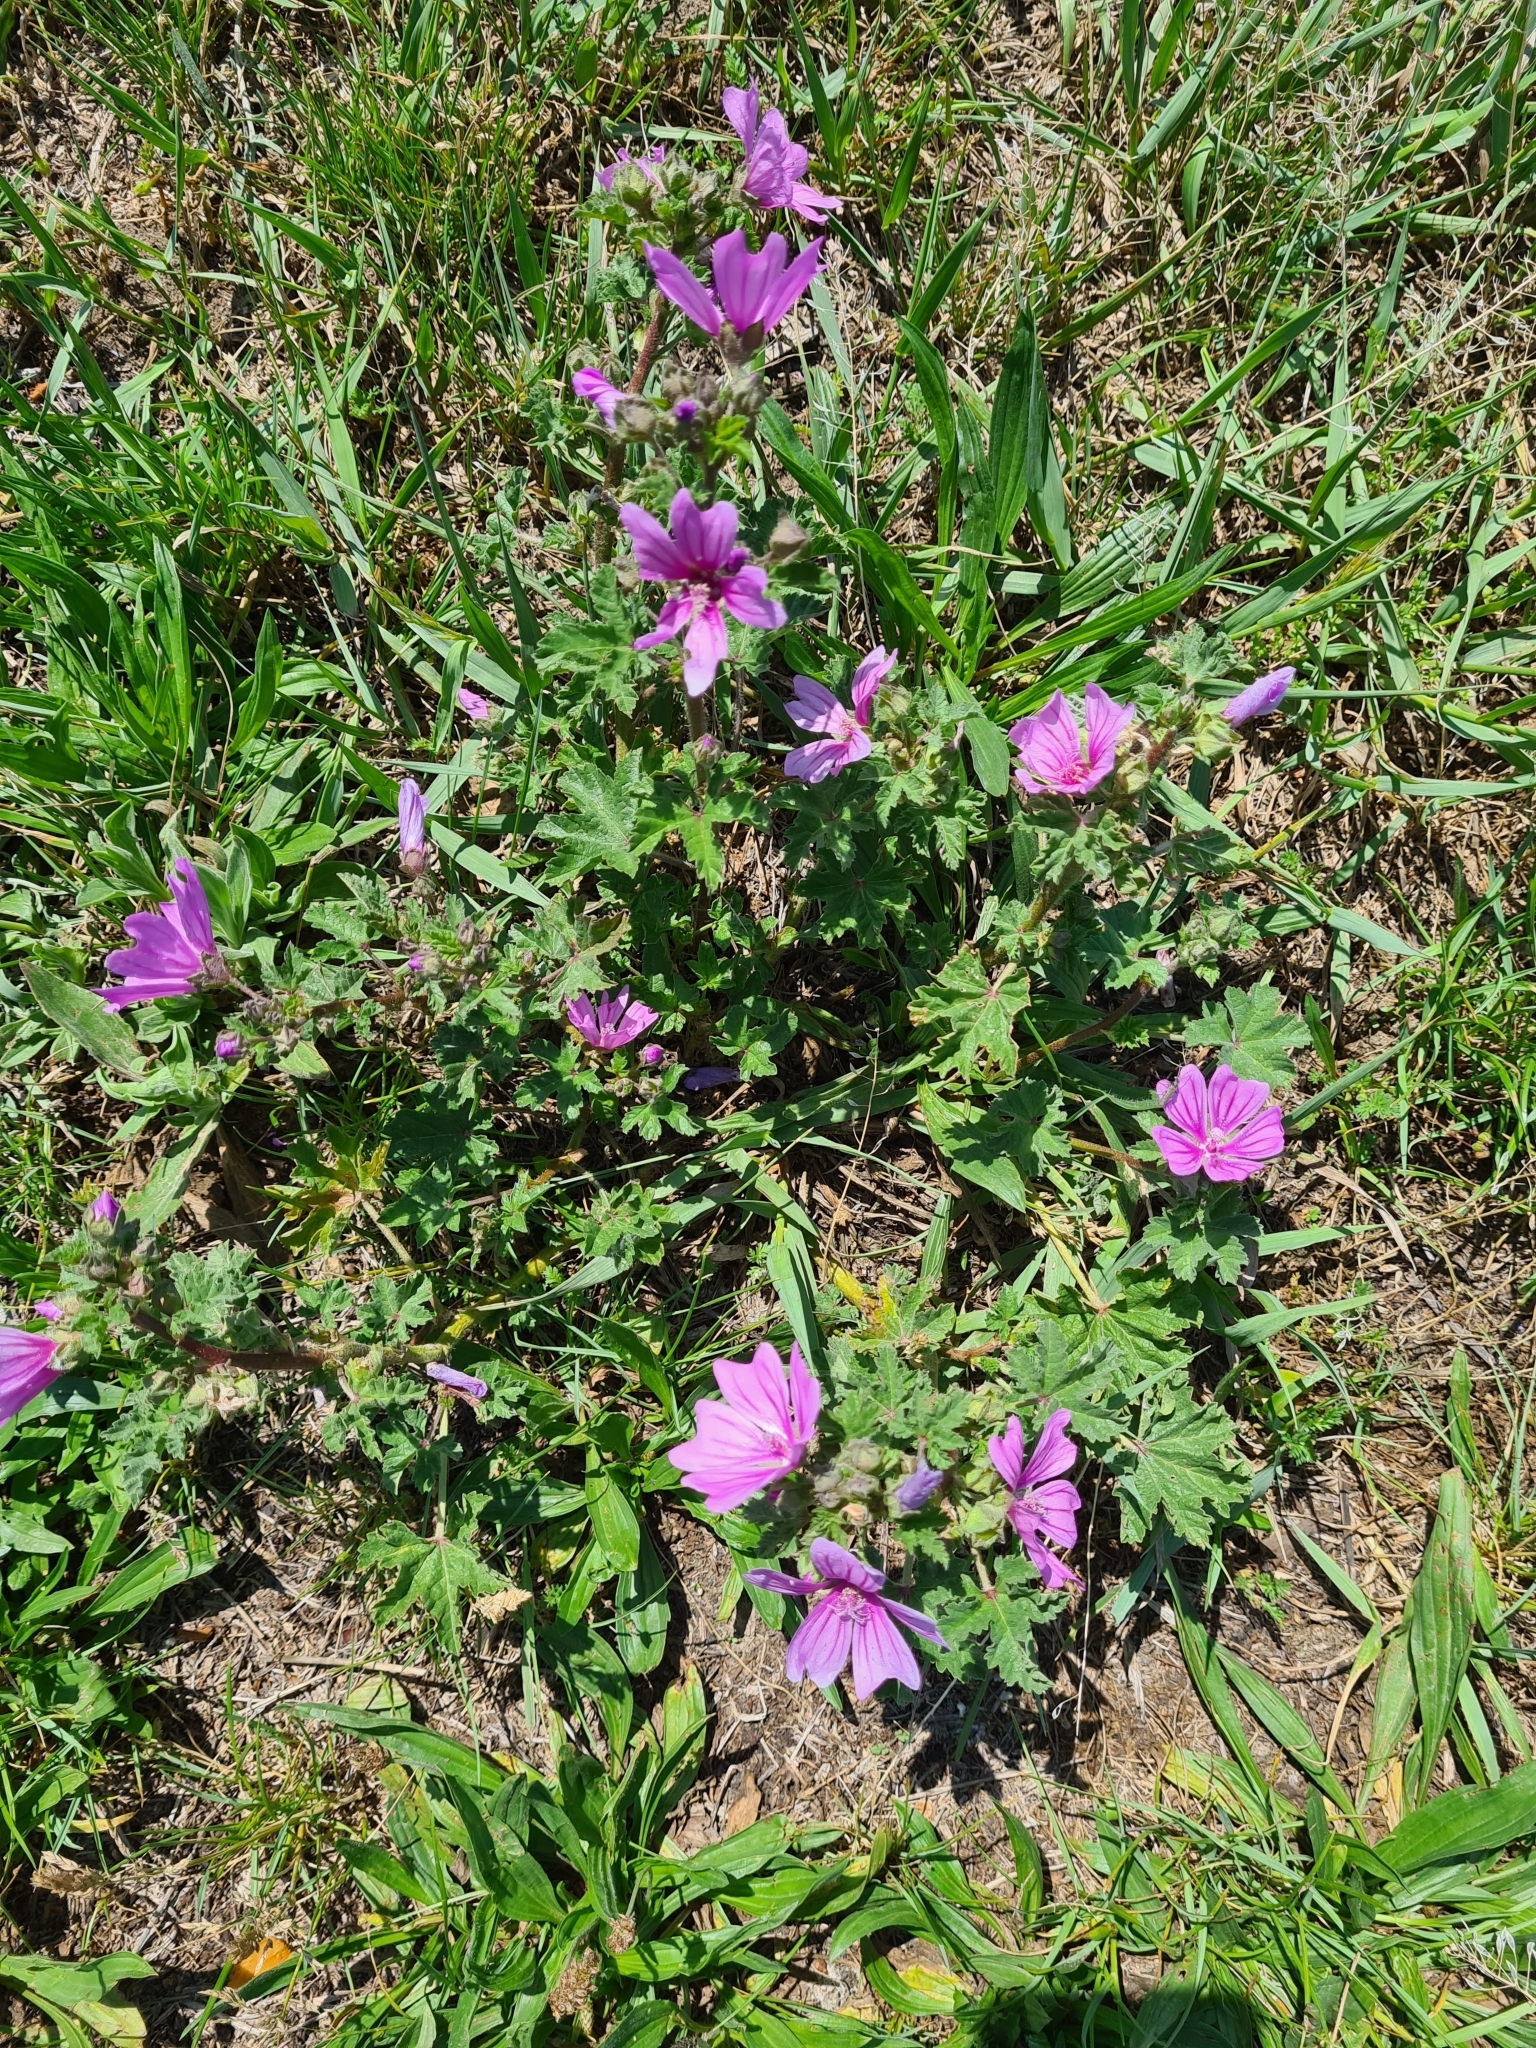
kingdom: Plantae
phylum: Tracheophyta
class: Magnoliopsida
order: Malvales
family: Malvaceae
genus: Malva
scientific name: Malva sylvestris
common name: Common mallow
